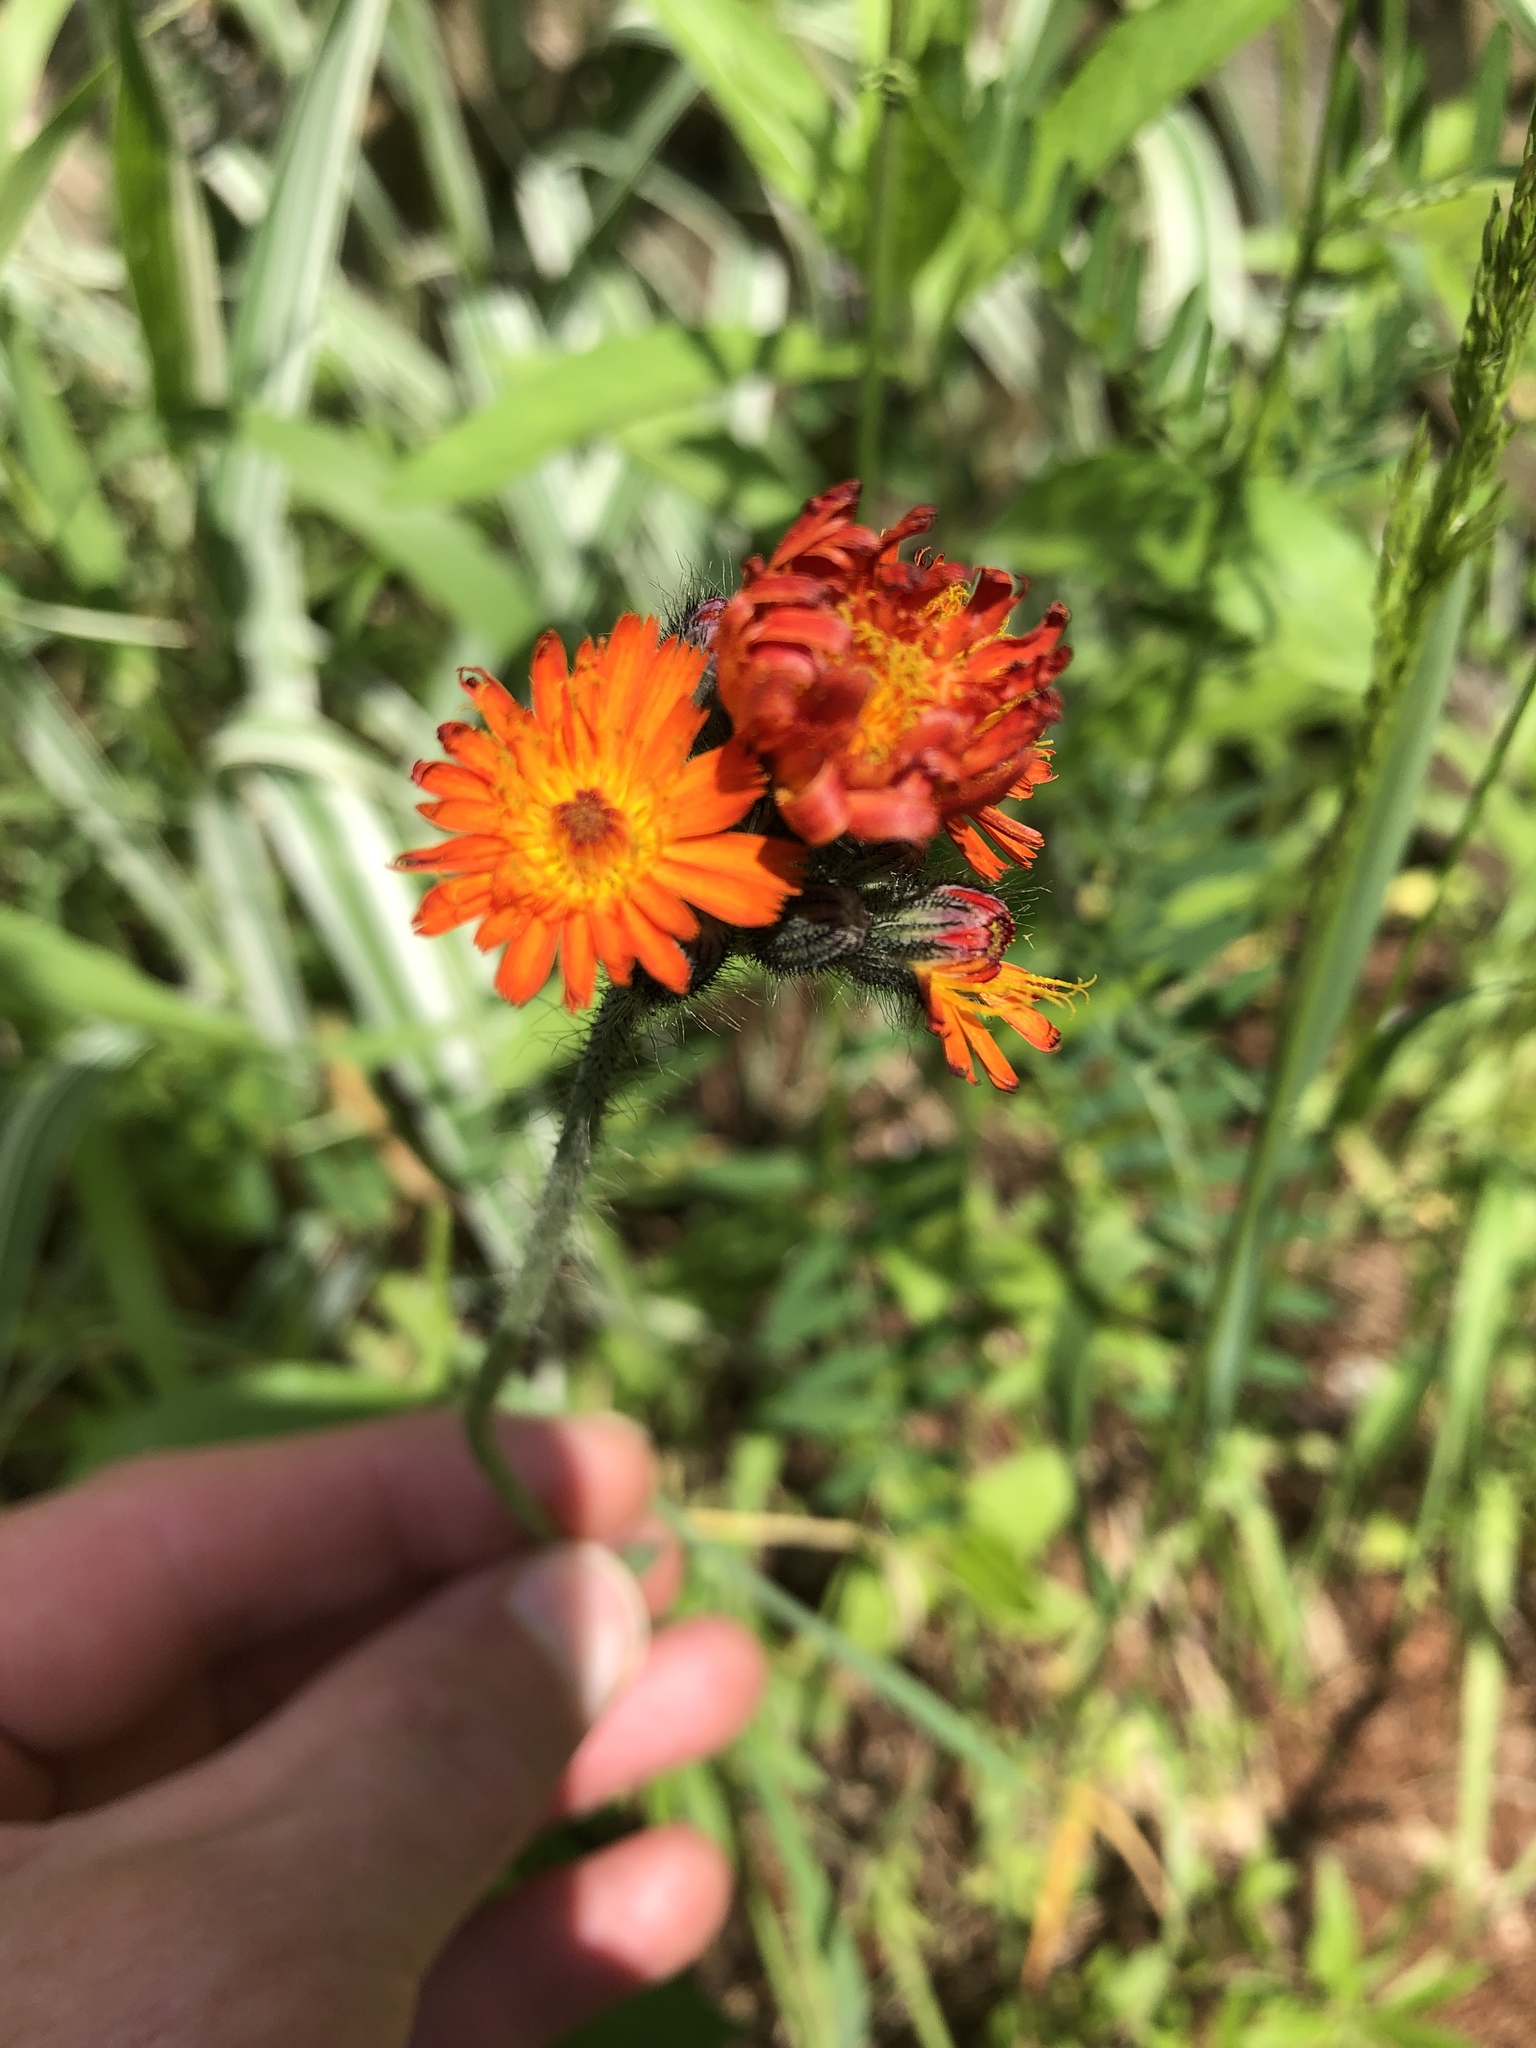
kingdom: Plantae
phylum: Tracheophyta
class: Magnoliopsida
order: Asterales
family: Asteraceae
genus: Pilosella
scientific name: Pilosella aurantiaca
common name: Fox-and-cubs
